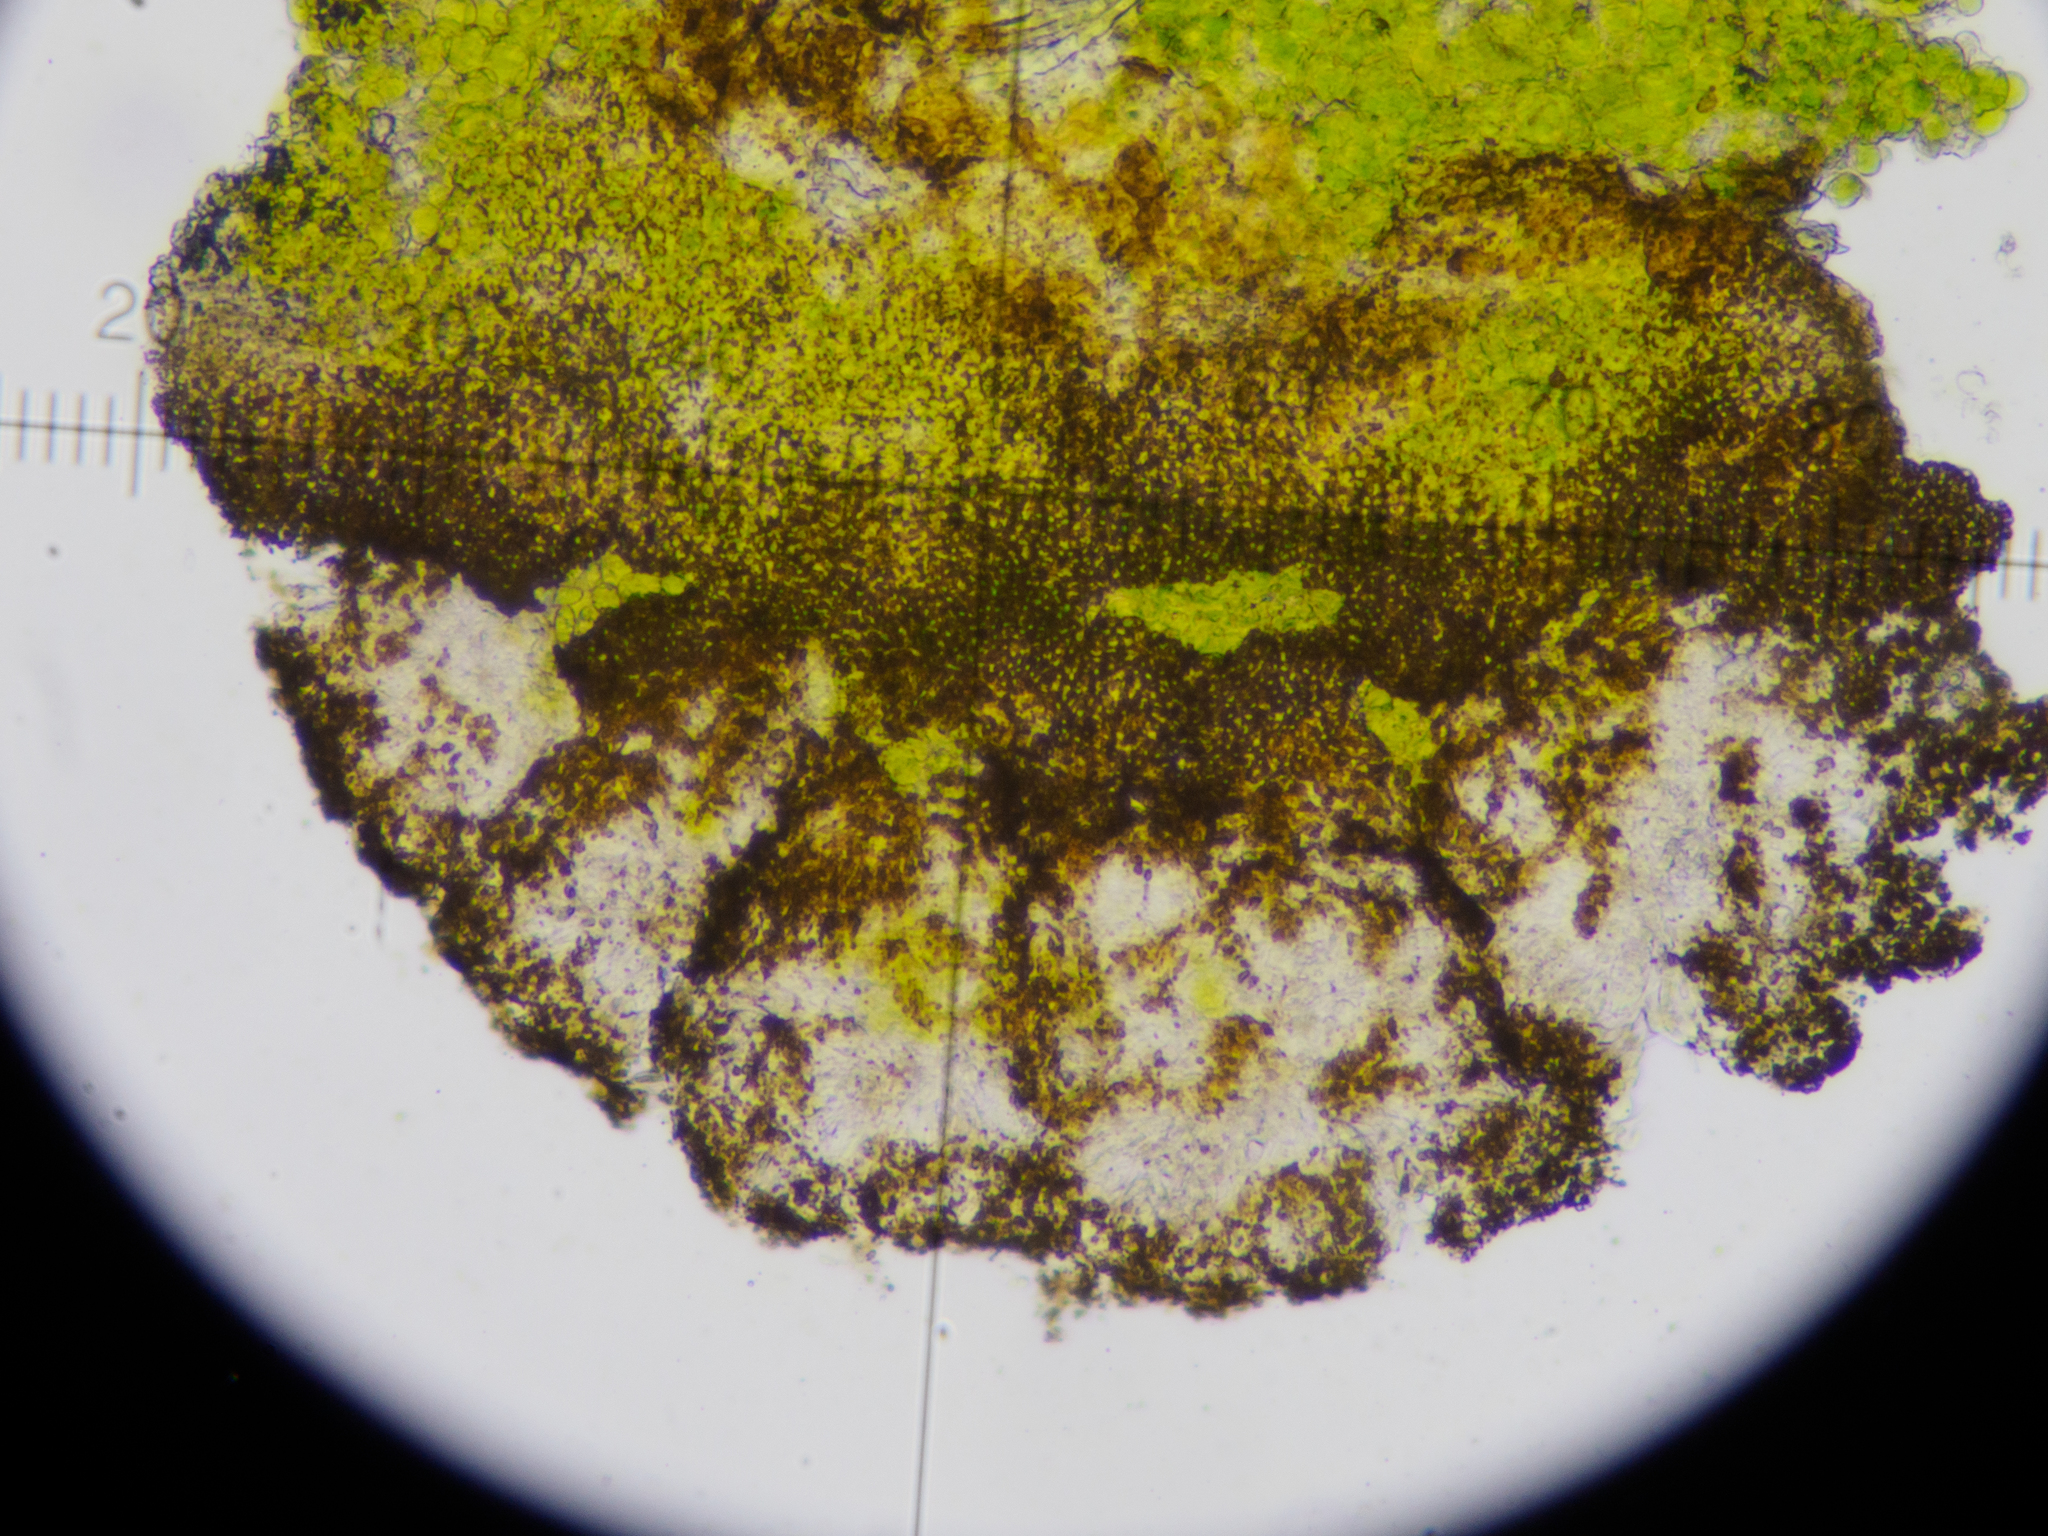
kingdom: Fungi
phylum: Ascomycota
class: Lecanoromycetes
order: Teloschistales
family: Teloschistaceae
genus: Athallia
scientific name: Athallia pyracea
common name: Flaming firedot lichen
